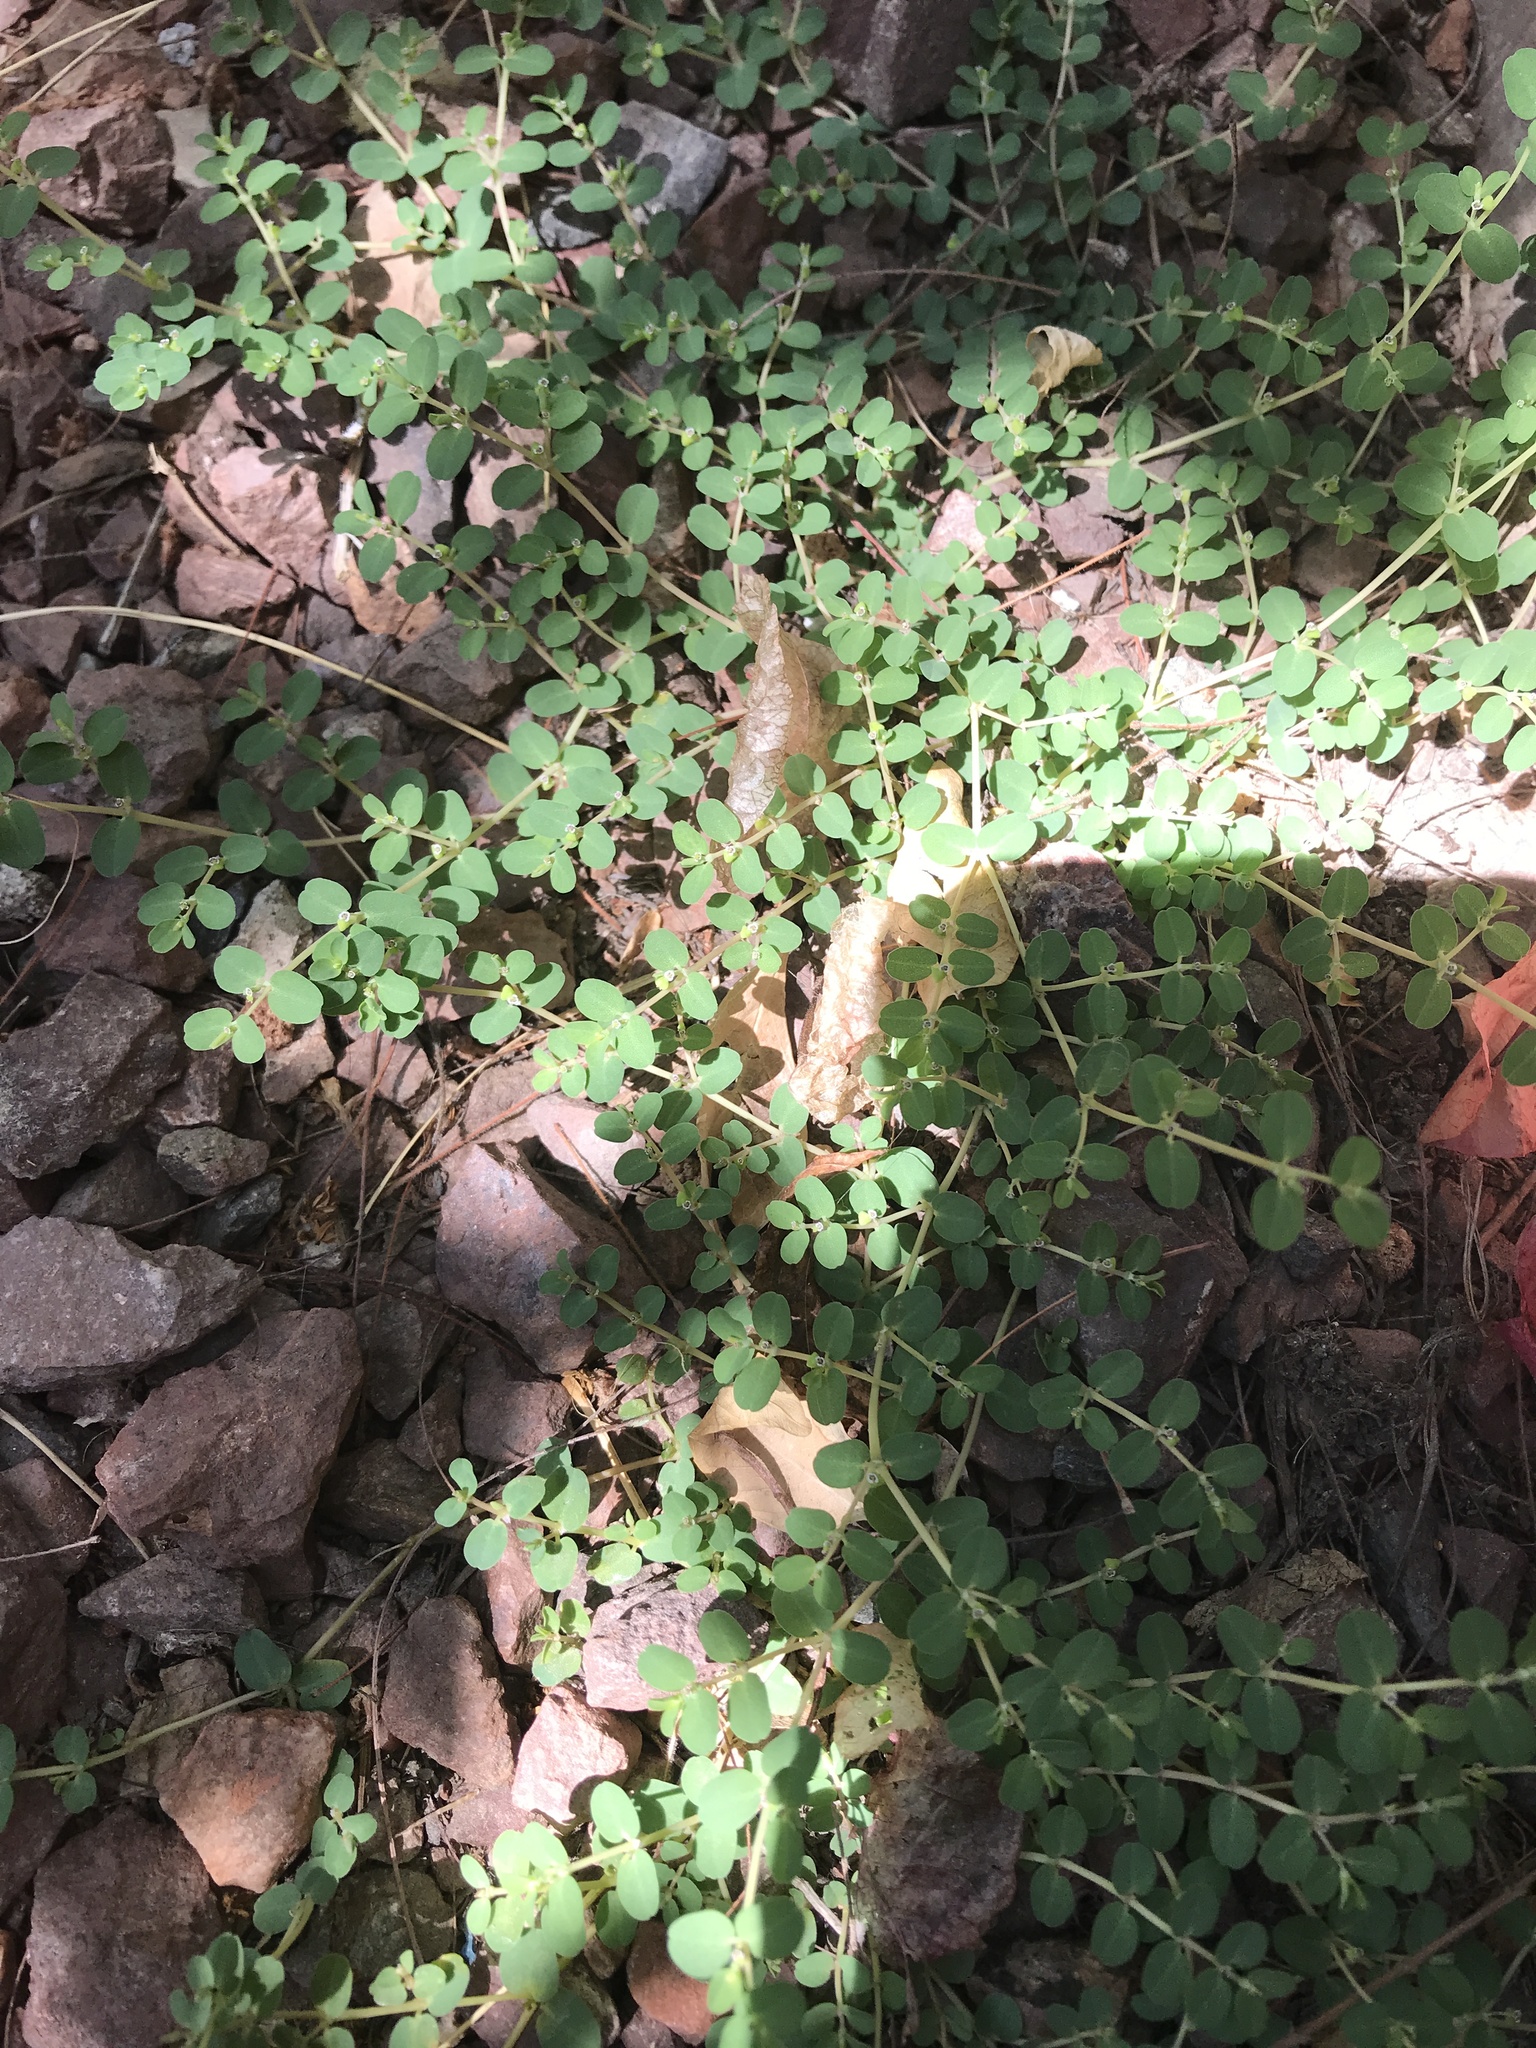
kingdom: Plantae
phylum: Tracheophyta
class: Magnoliopsida
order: Malpighiales
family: Euphorbiaceae
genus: Euphorbia
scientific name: Euphorbia serpens
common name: Matted sandmat
